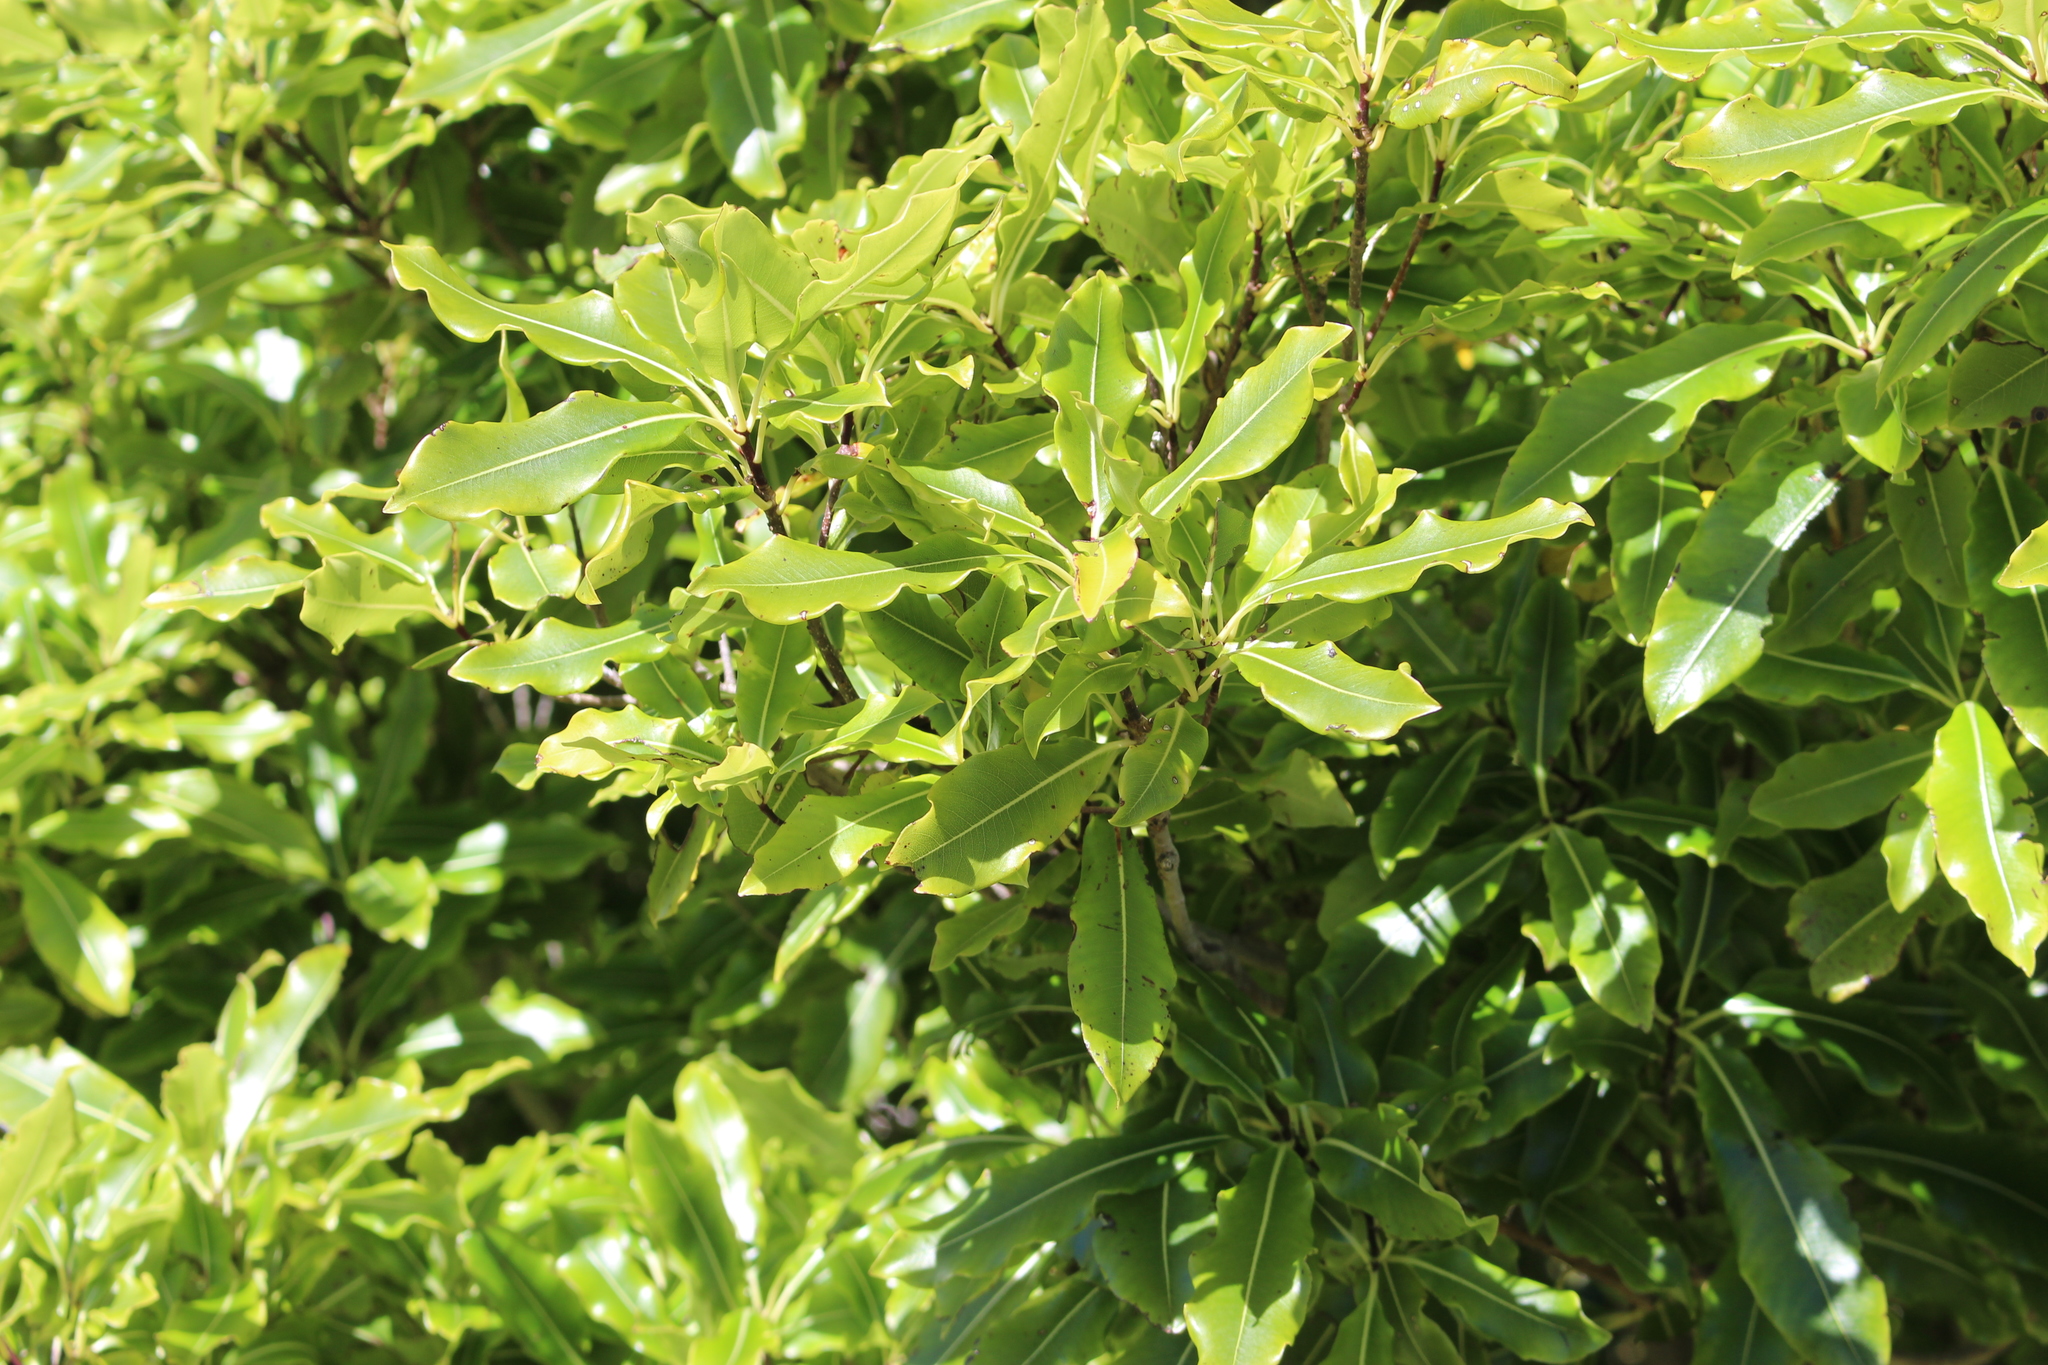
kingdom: Plantae
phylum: Tracheophyta
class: Magnoliopsida
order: Apiales
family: Pittosporaceae
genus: Pittosporum
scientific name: Pittosporum eugenioides
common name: Lemonwood
